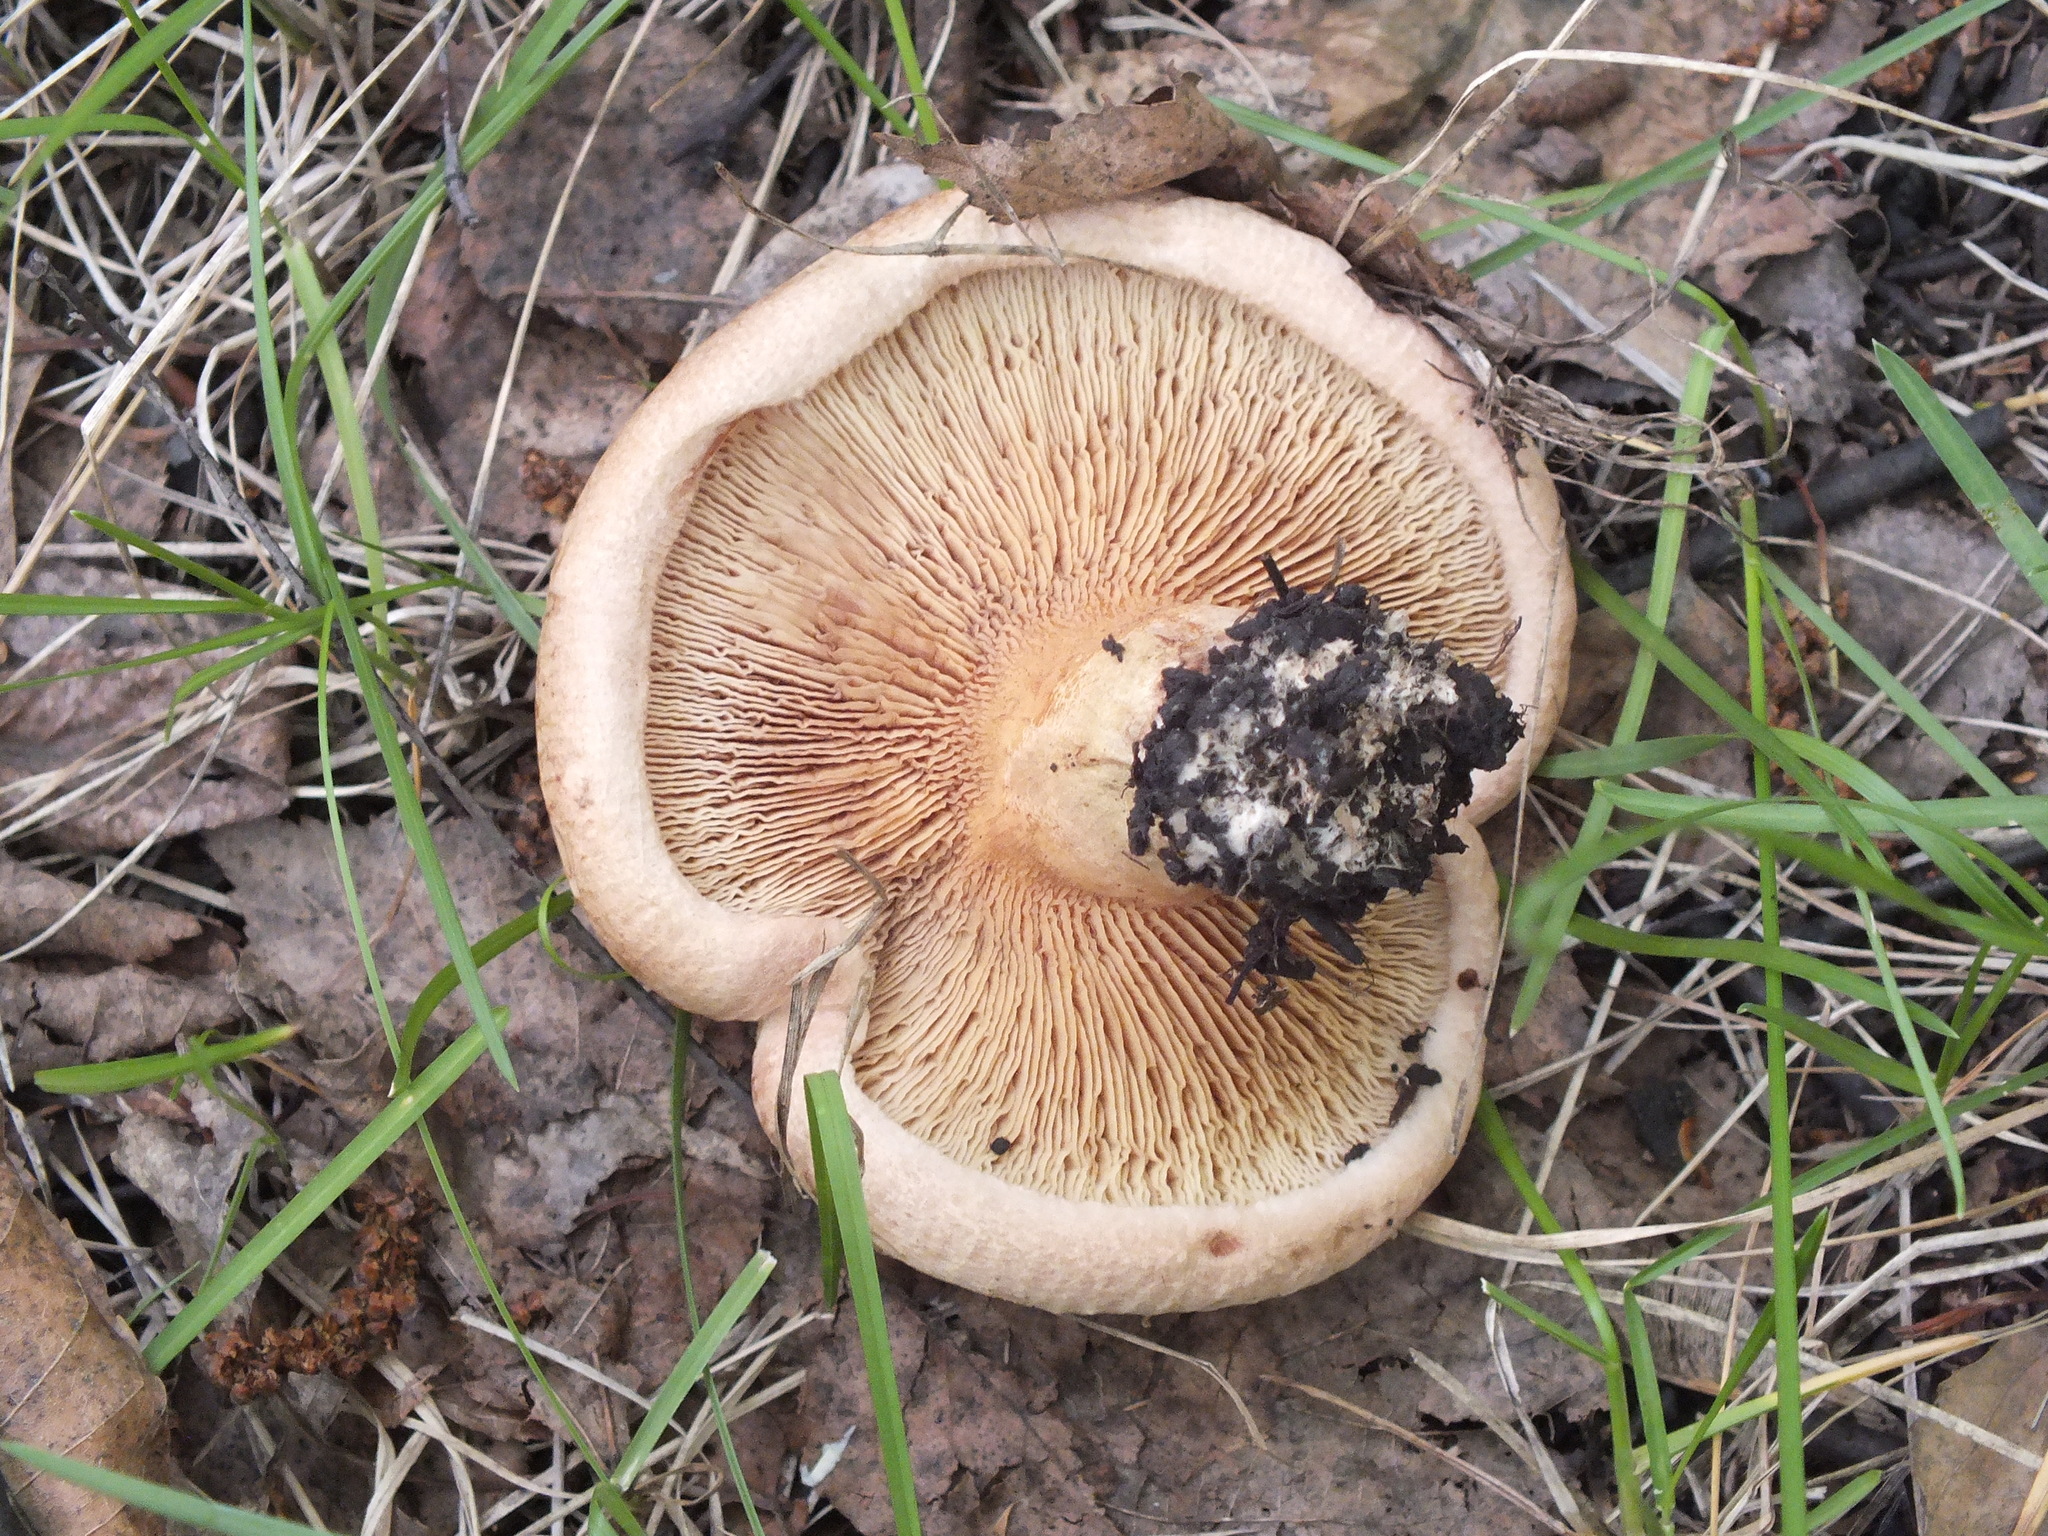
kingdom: Fungi
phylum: Basidiomycota
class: Agaricomycetes
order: Boletales
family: Paxillaceae
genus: Paxillus
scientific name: Paxillus involutus
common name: Brown roll rim
